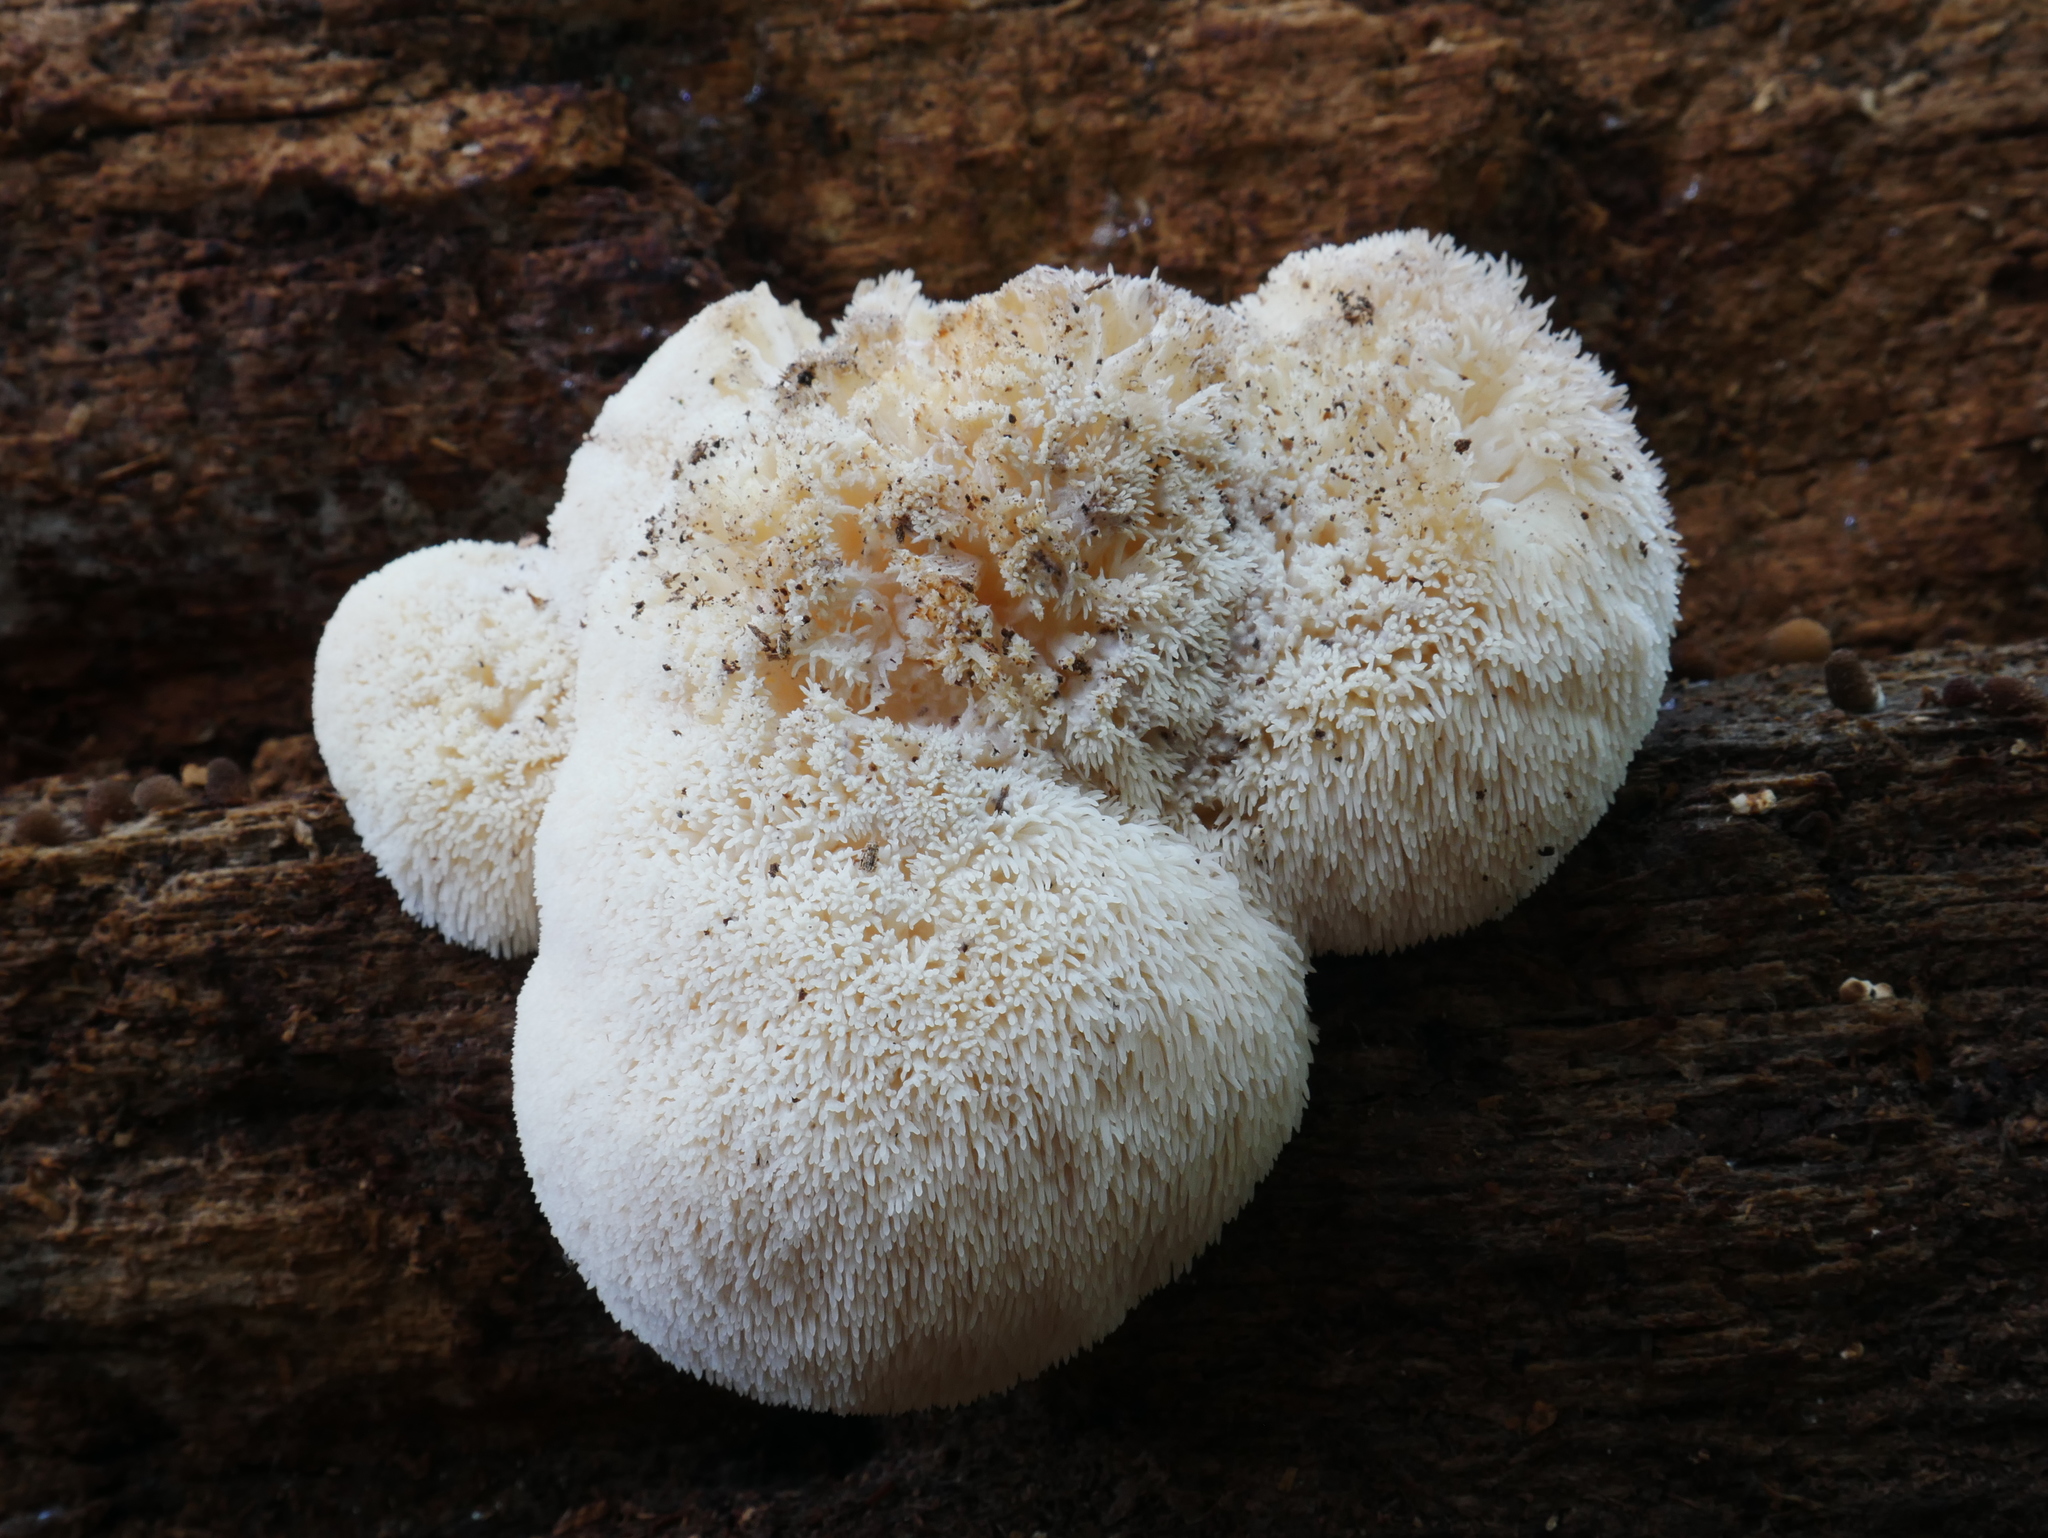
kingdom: Fungi
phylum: Basidiomycota
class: Agaricomycetes
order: Russulales
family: Hericiaceae
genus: Hericium
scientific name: Hericium erinaceus
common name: Bearded tooth
